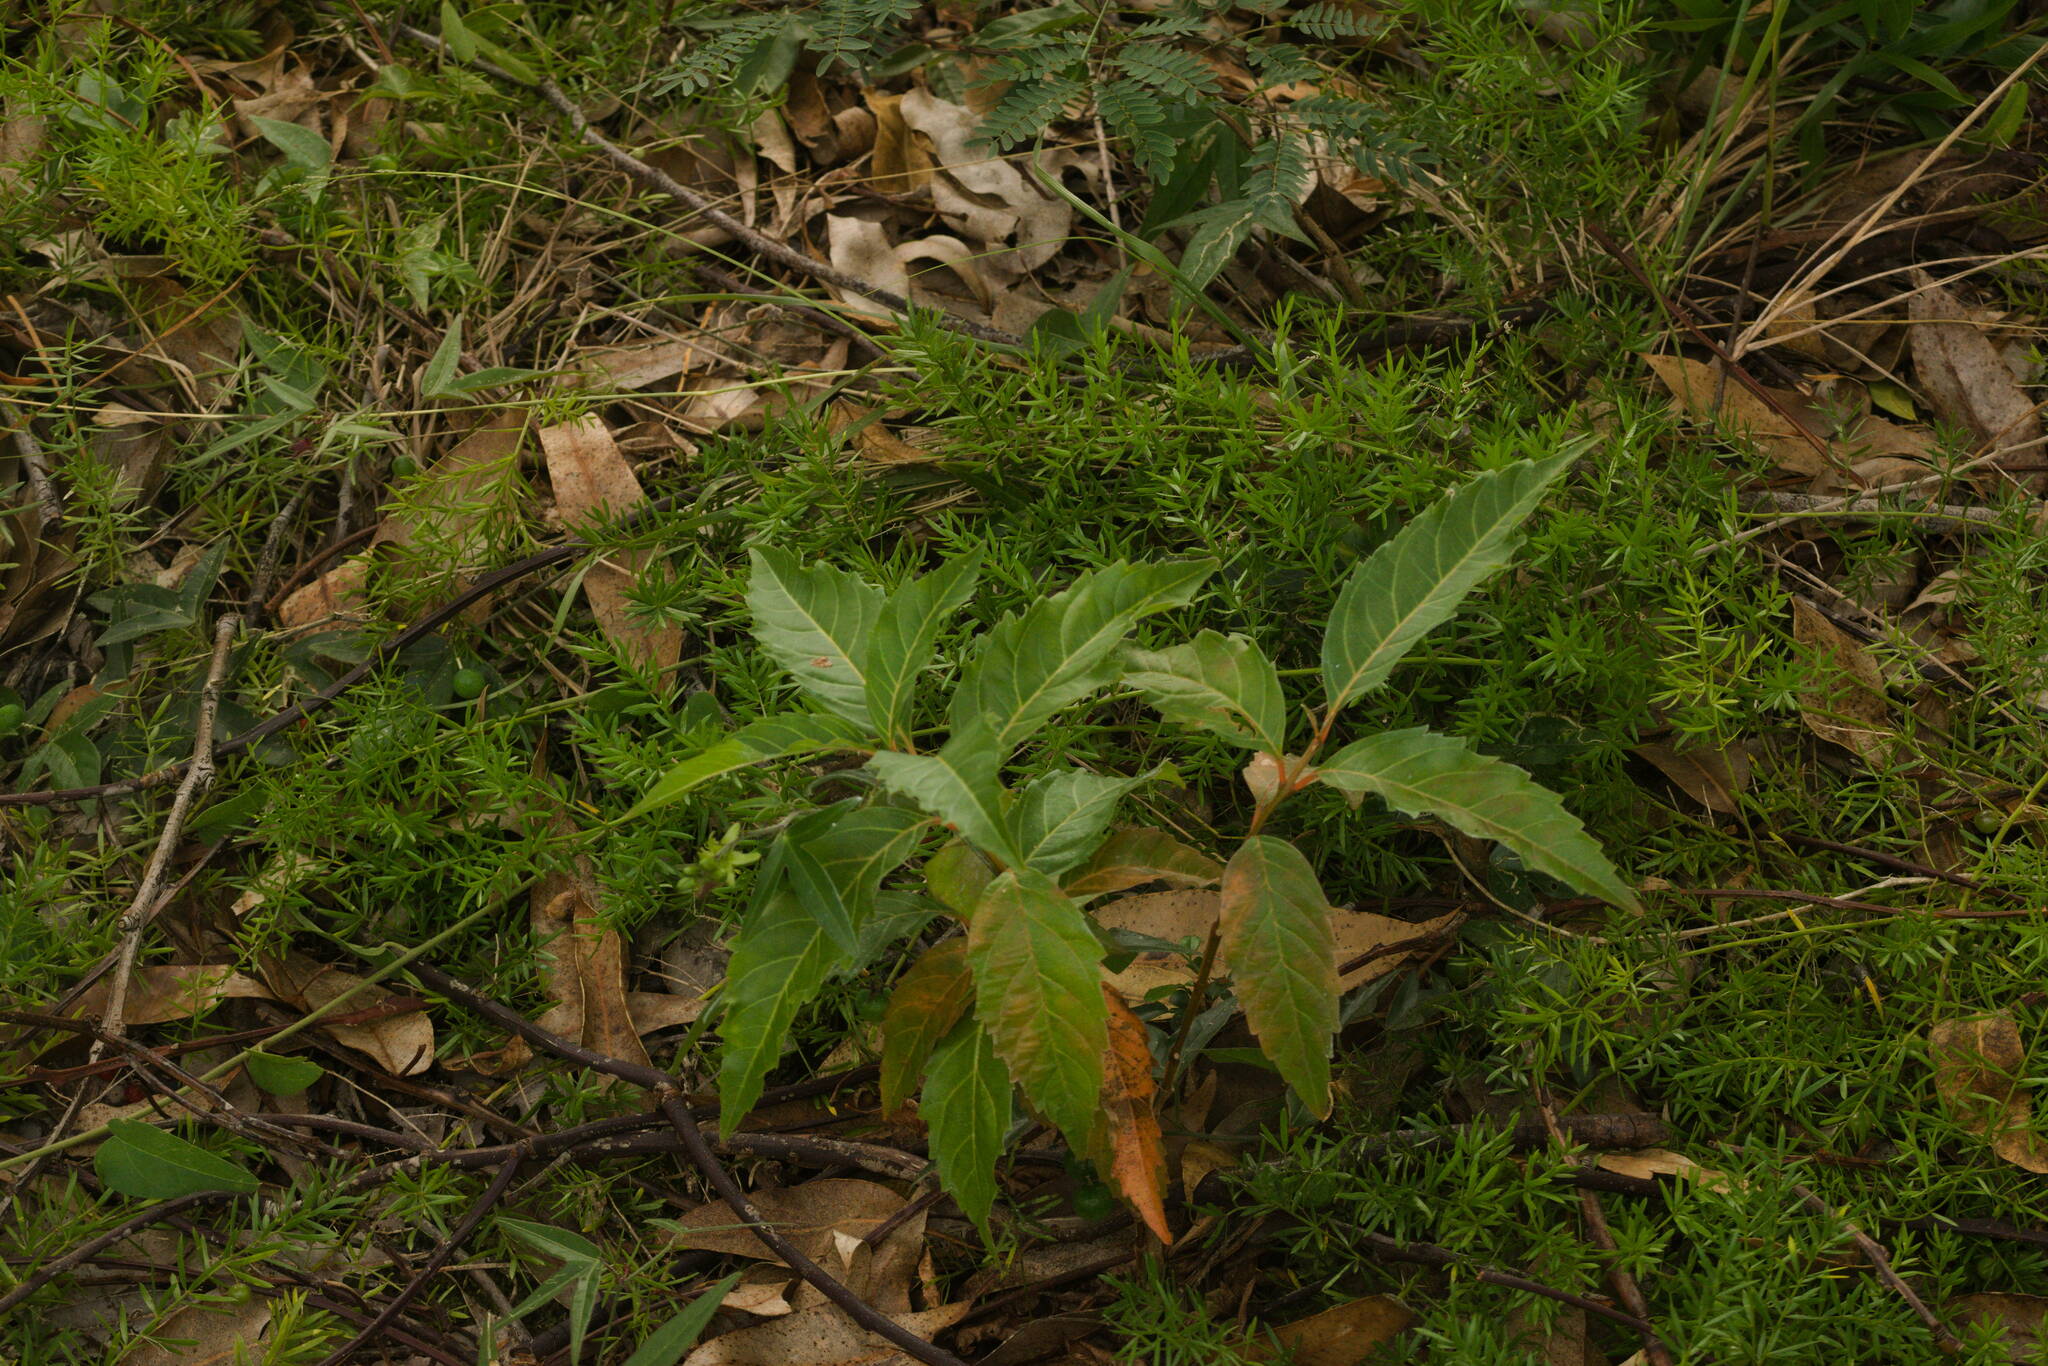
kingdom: Plantae
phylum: Tracheophyta
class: Magnoliopsida
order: Lamiales
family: Verbenaceae
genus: Citharexylum
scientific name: Citharexylum spinosum
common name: Fiddlewood
